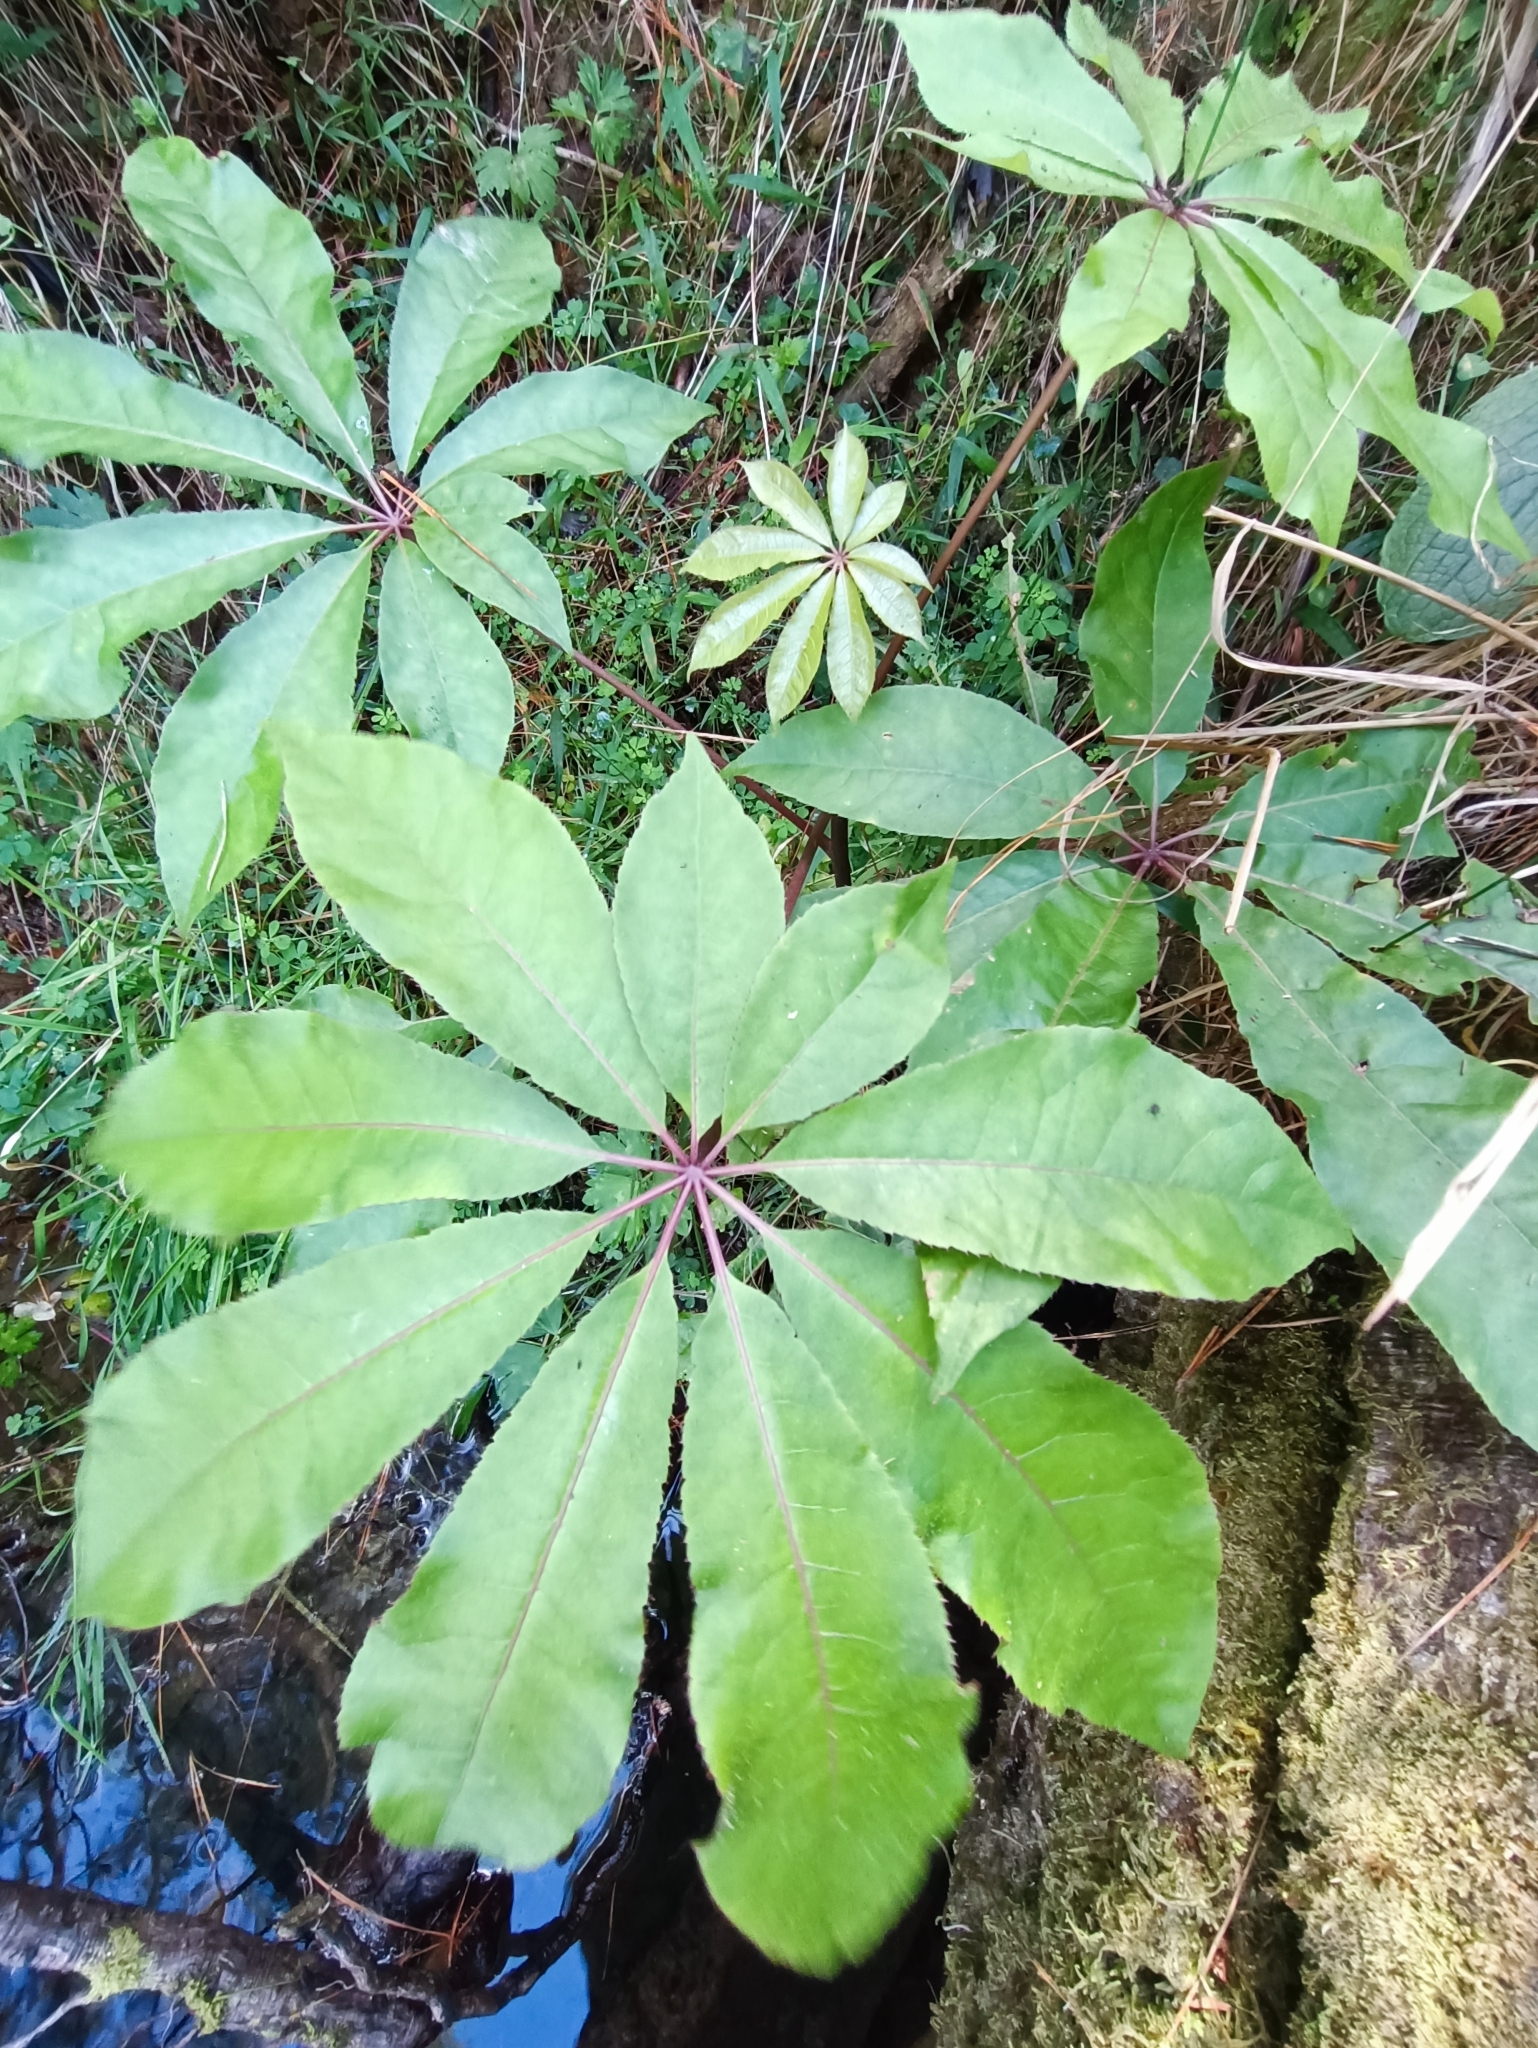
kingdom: Plantae
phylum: Tracheophyta
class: Magnoliopsida
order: Apiales
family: Araliaceae
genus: Schefflera
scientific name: Schefflera digitata
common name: Pate
